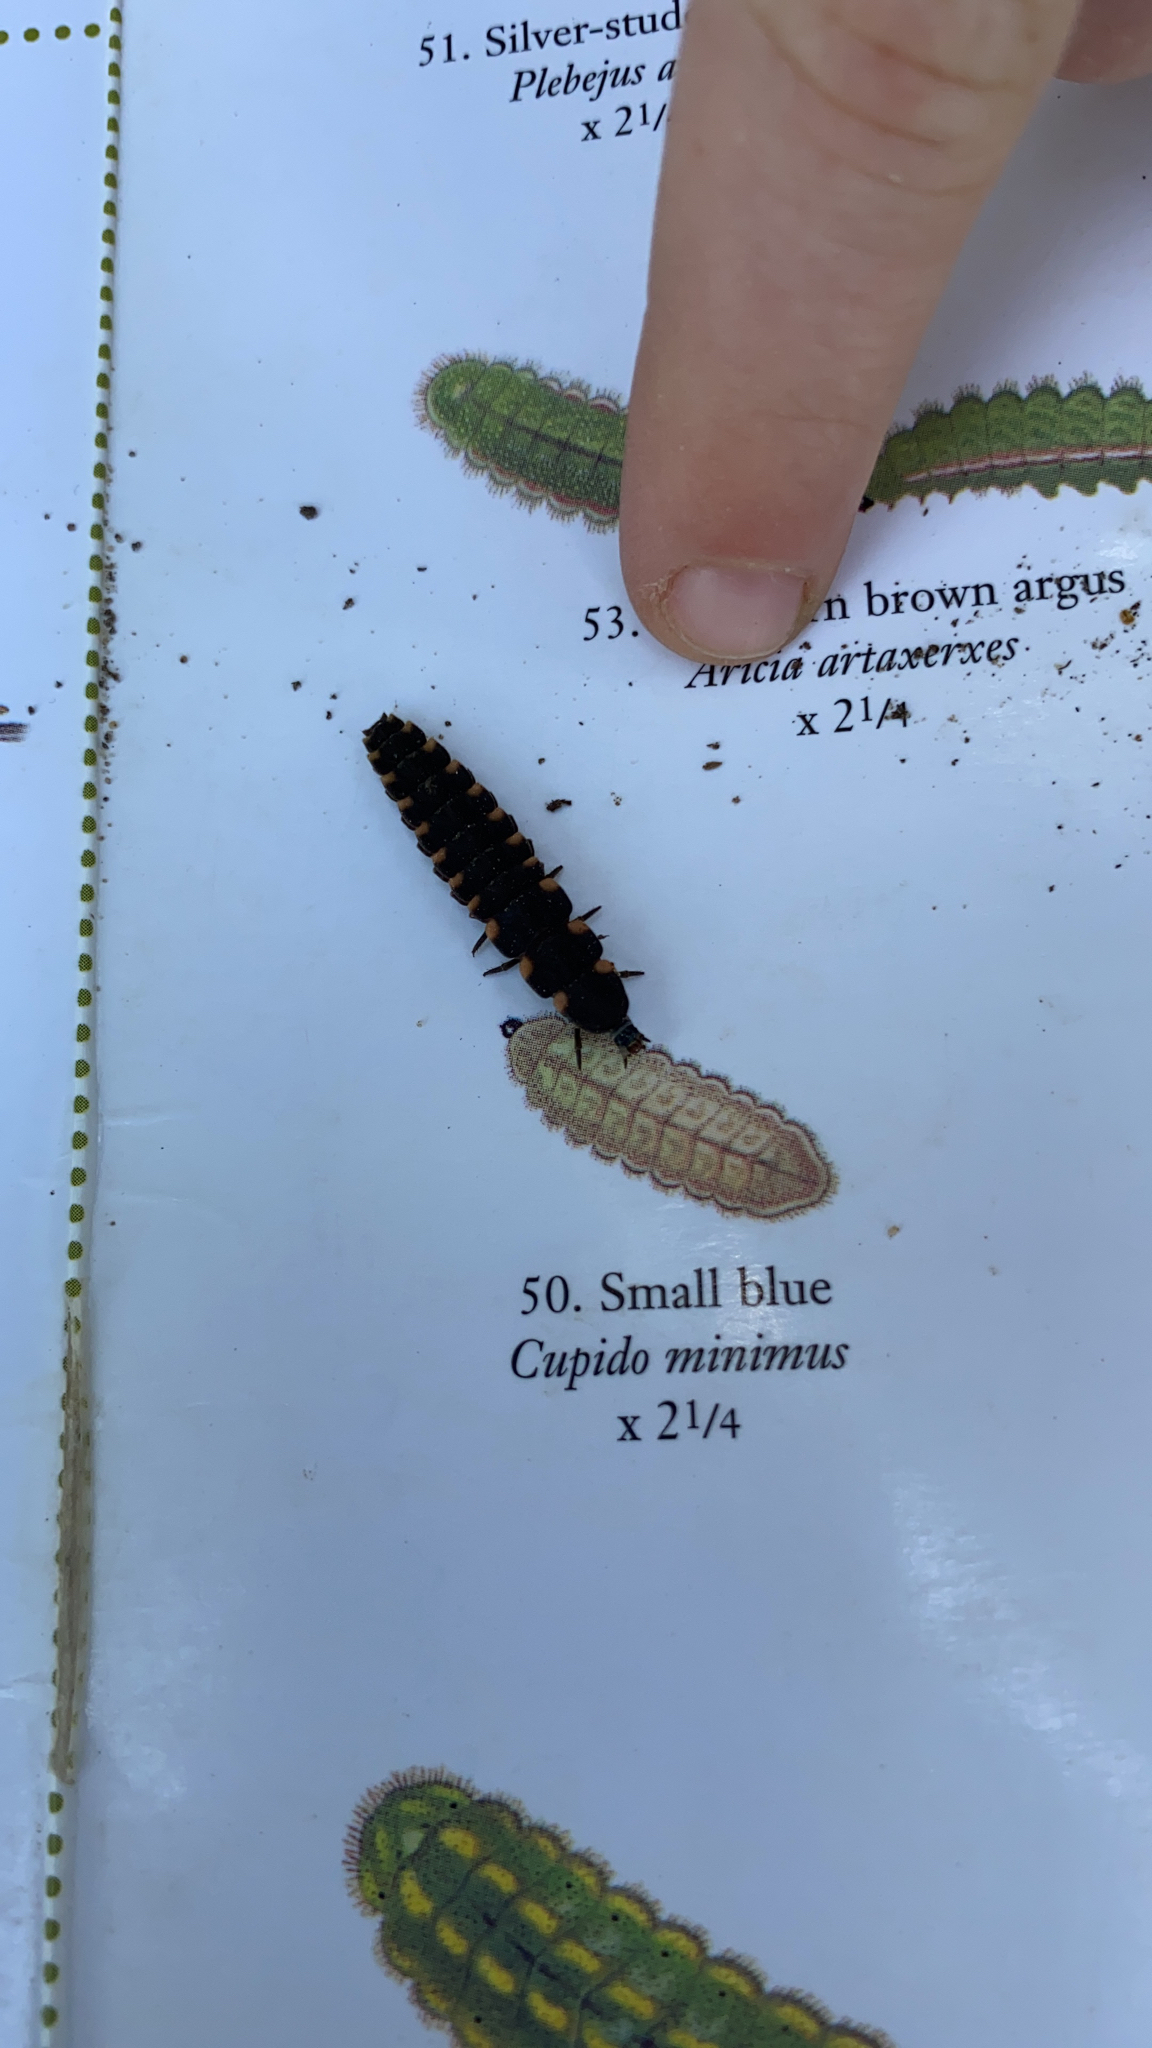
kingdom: Animalia
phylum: Arthropoda
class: Insecta
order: Coleoptera
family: Lampyridae
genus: Lampyris
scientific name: Lampyris noctiluca
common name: Glow-worm
